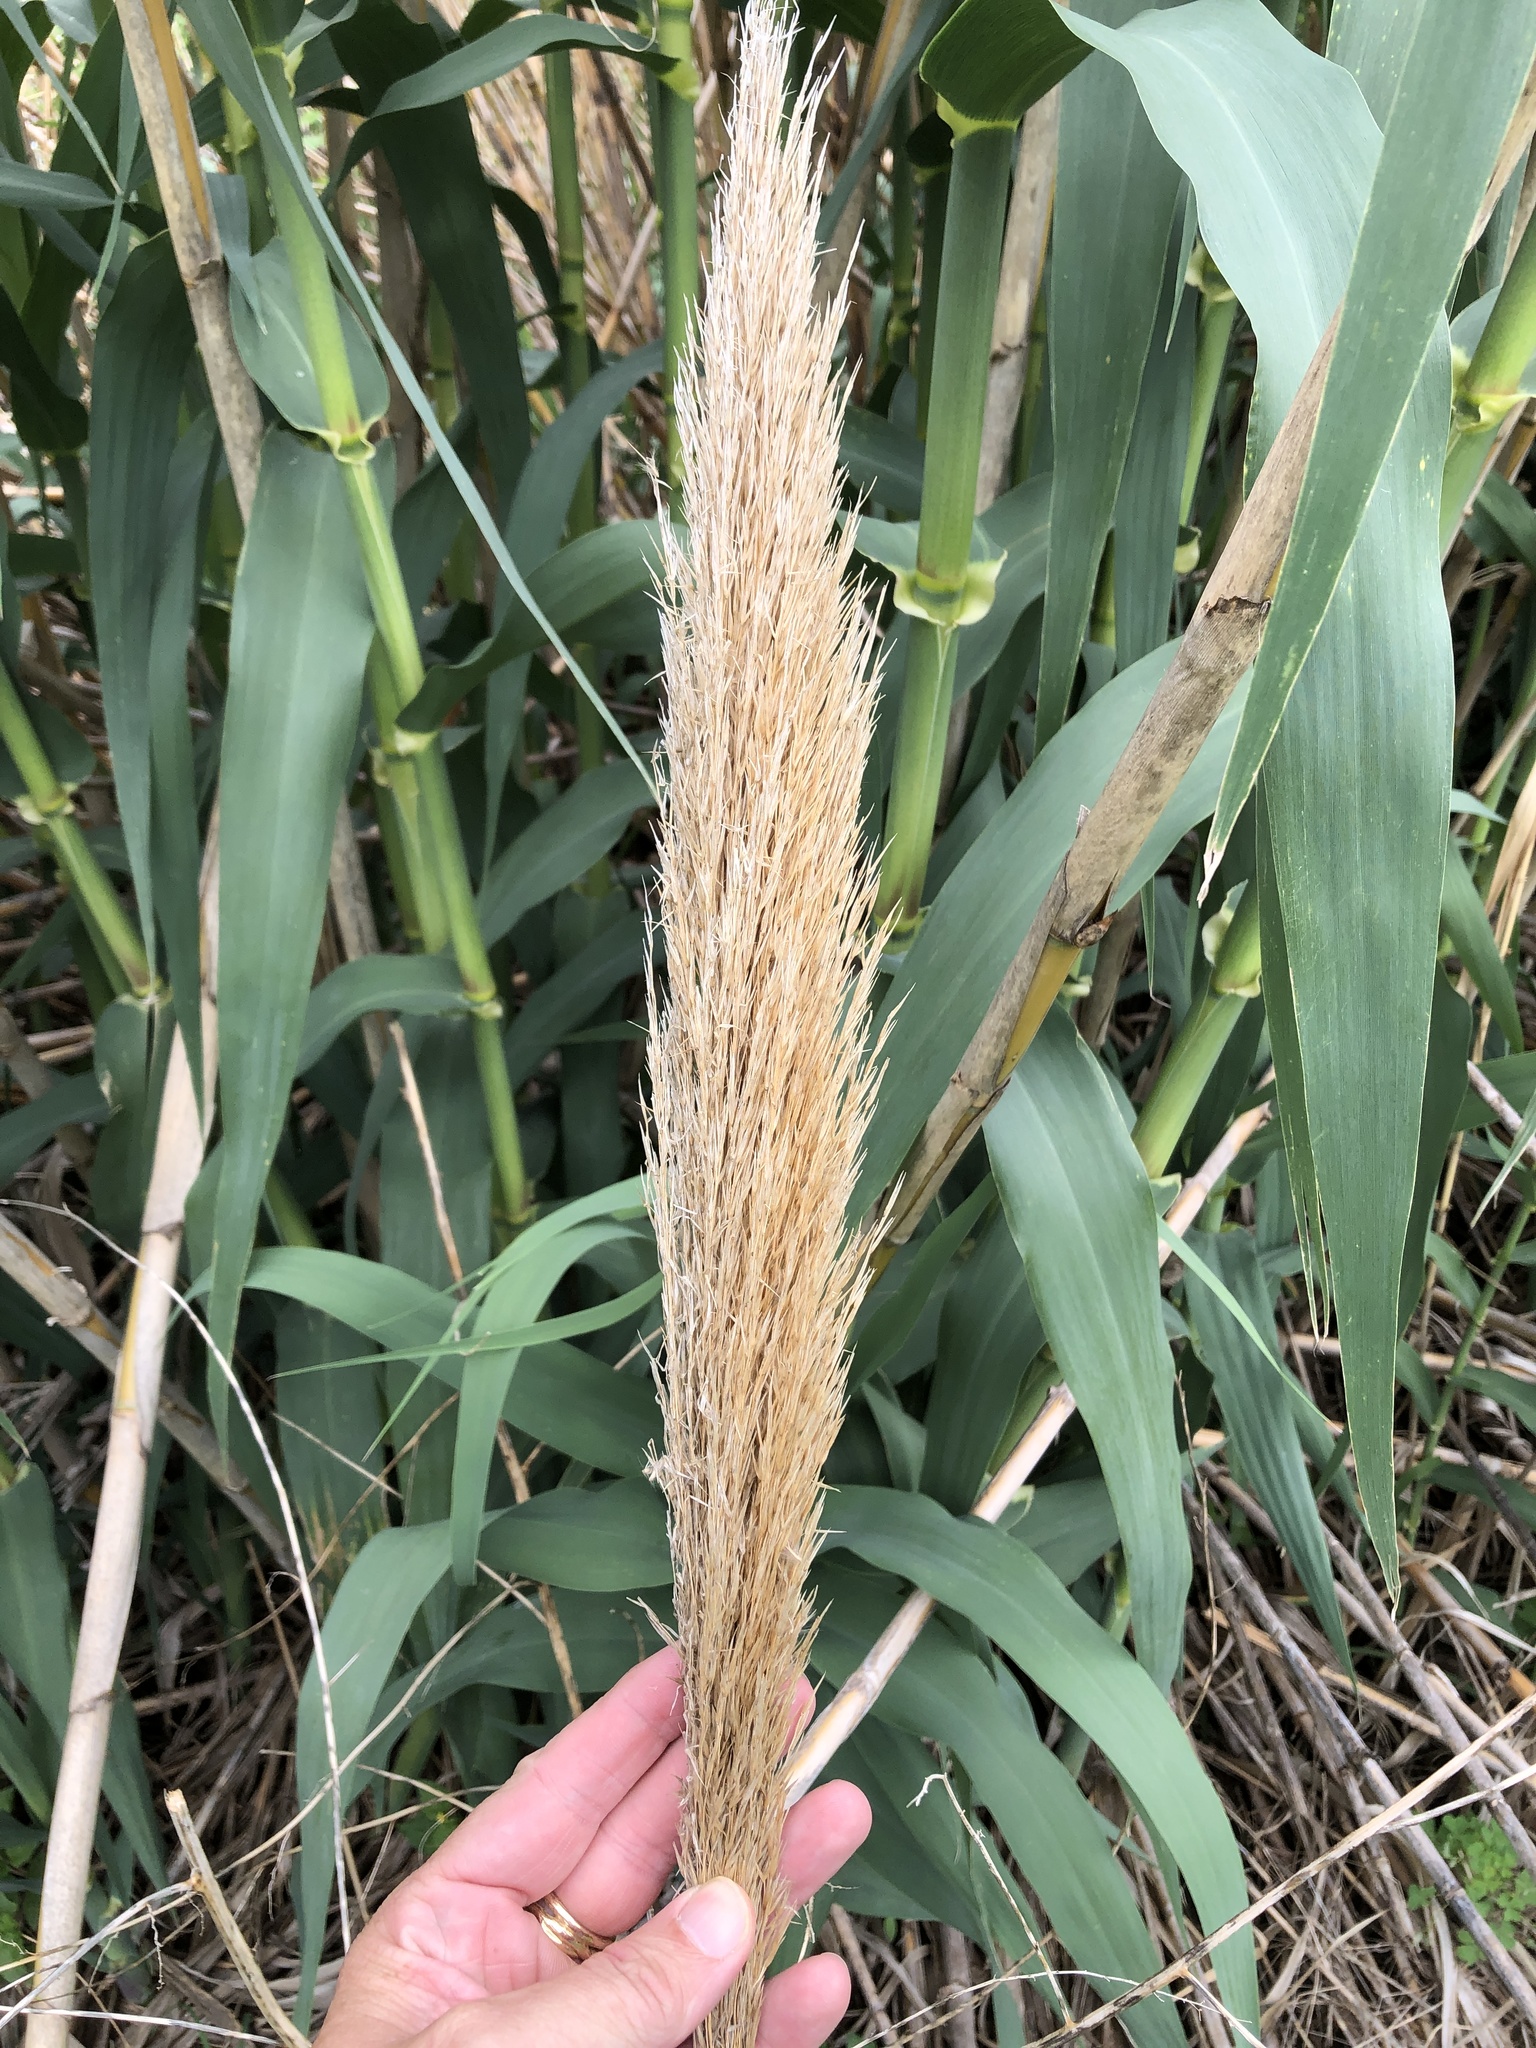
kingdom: Plantae
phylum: Tracheophyta
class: Liliopsida
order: Poales
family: Poaceae
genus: Arundo
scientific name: Arundo donax
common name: Giant reed
